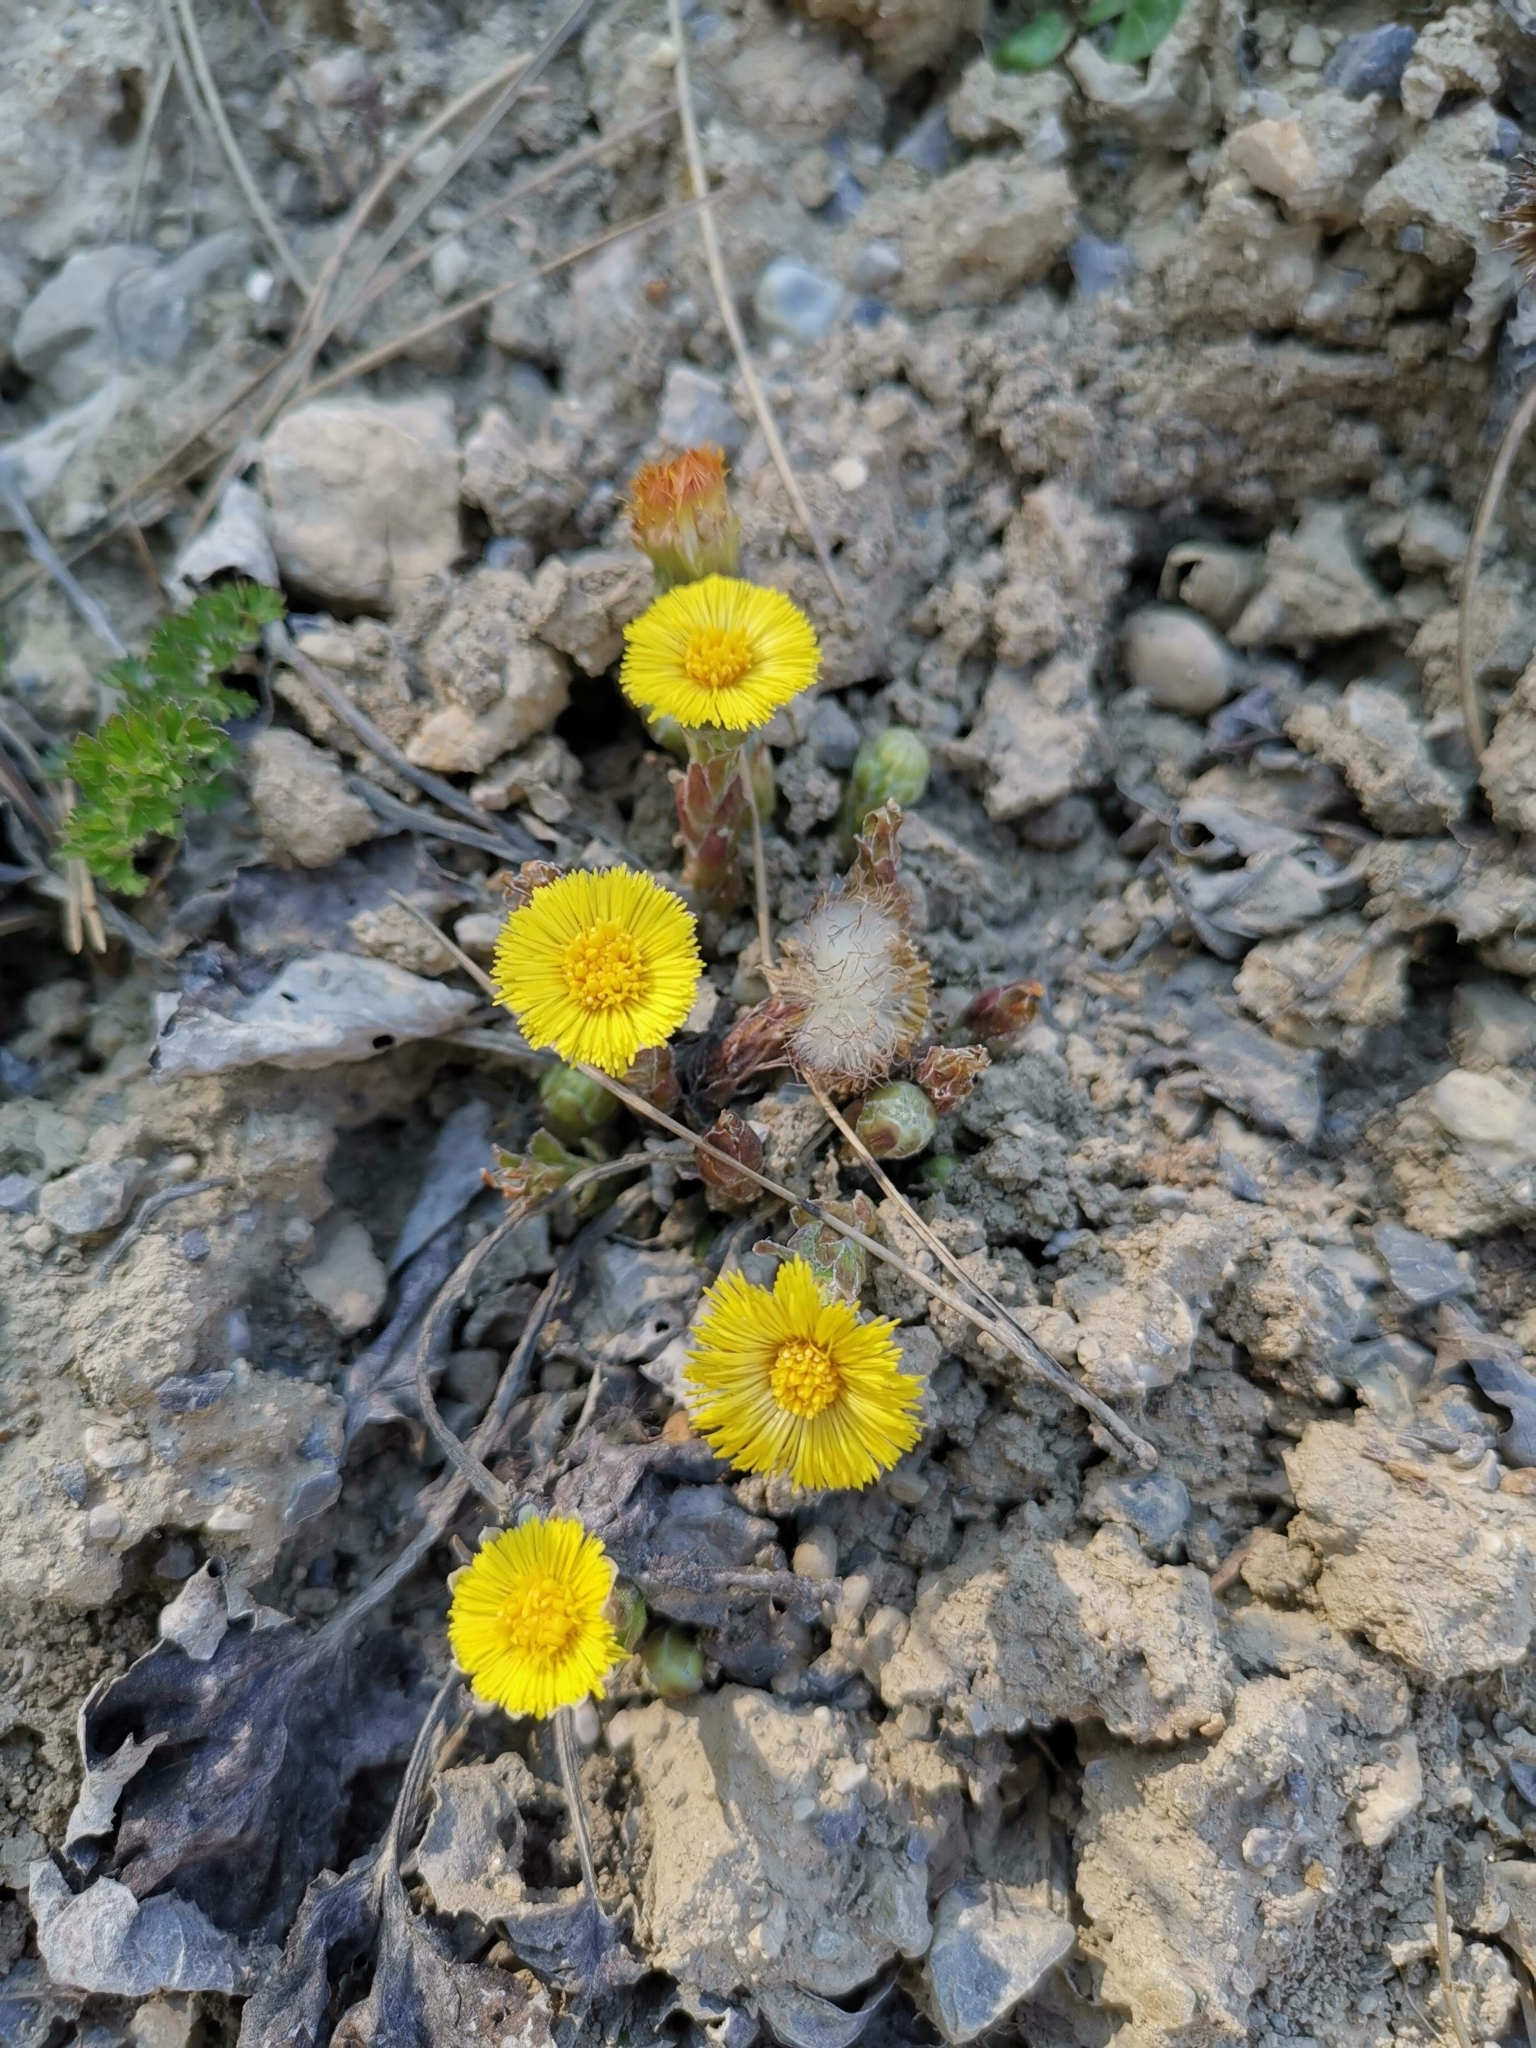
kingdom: Plantae
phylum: Tracheophyta
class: Magnoliopsida
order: Asterales
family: Asteraceae
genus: Tussilago
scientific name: Tussilago farfara
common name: Coltsfoot
